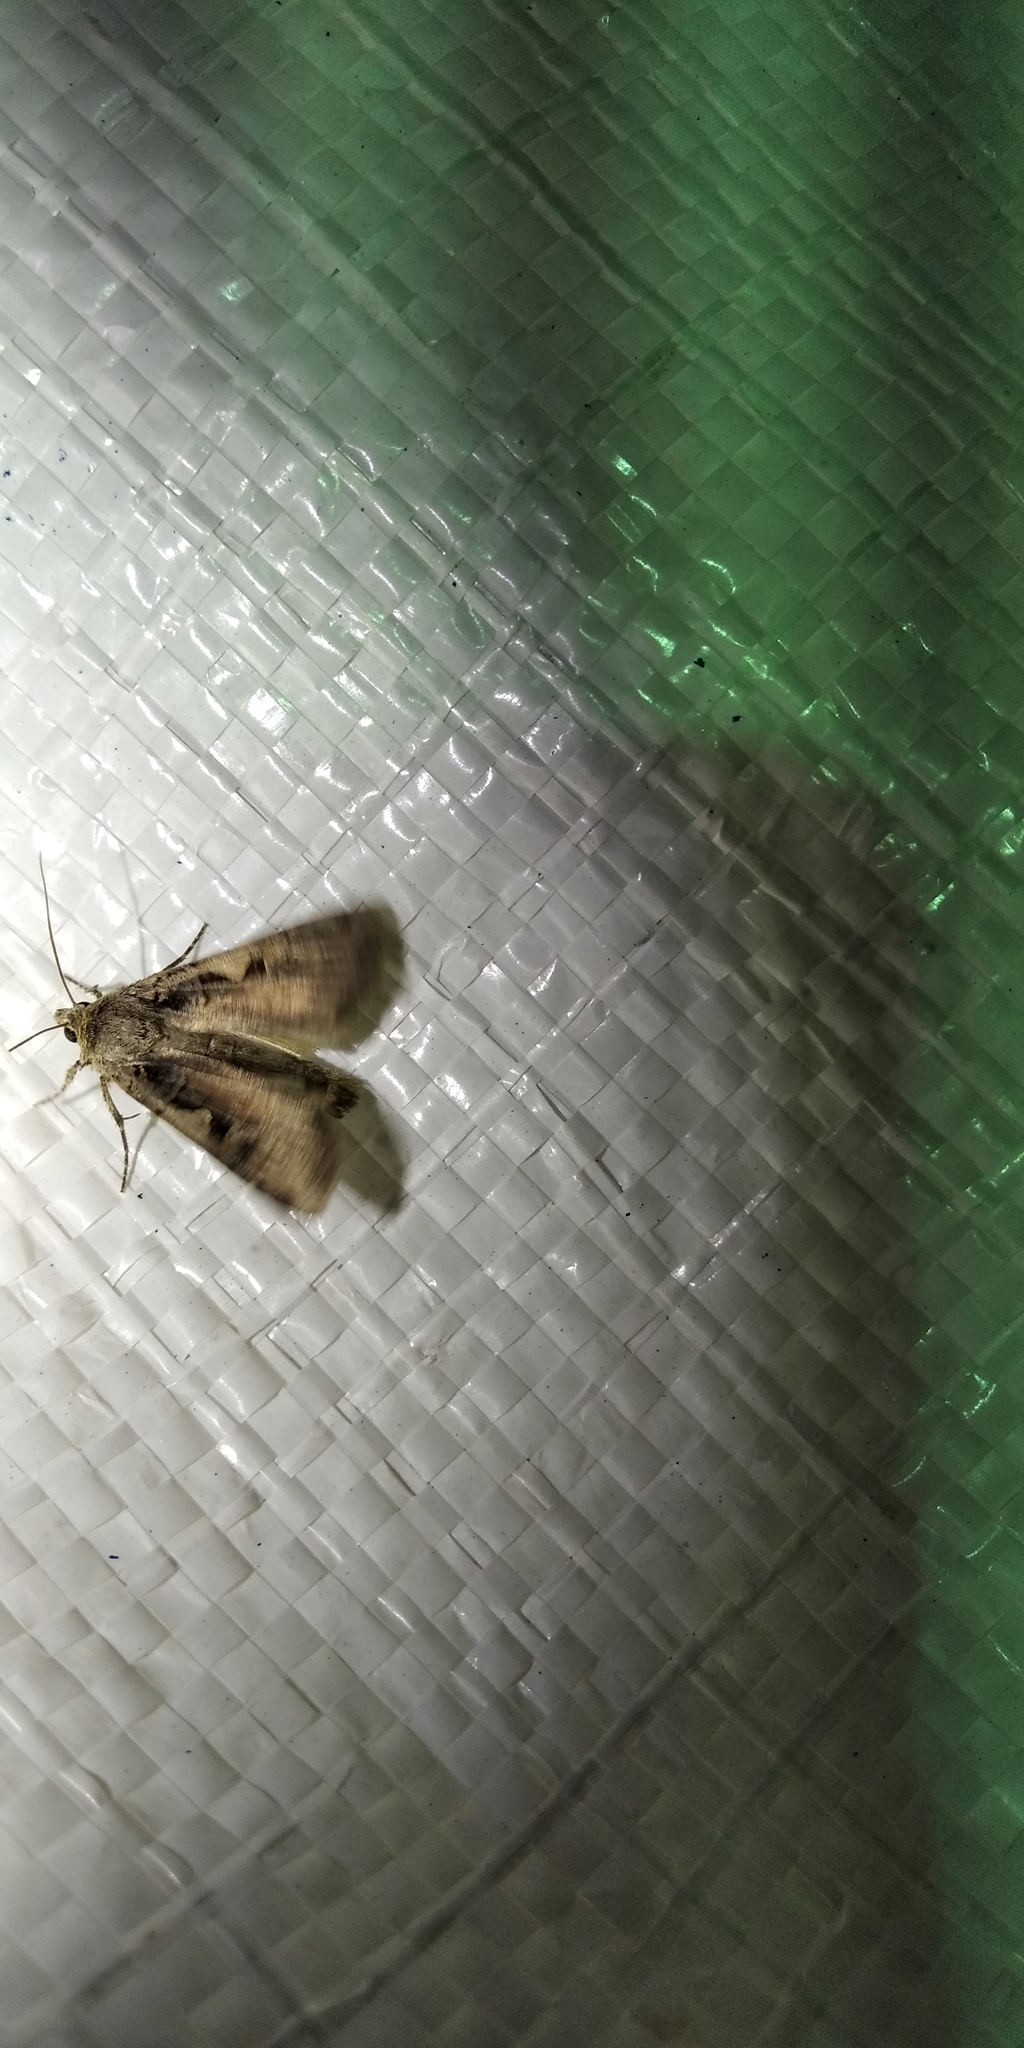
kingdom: Animalia
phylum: Arthropoda
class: Insecta
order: Lepidoptera
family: Noctuidae
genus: Xestia
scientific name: Xestia c-nigrum
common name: Setaceous hebrew character
